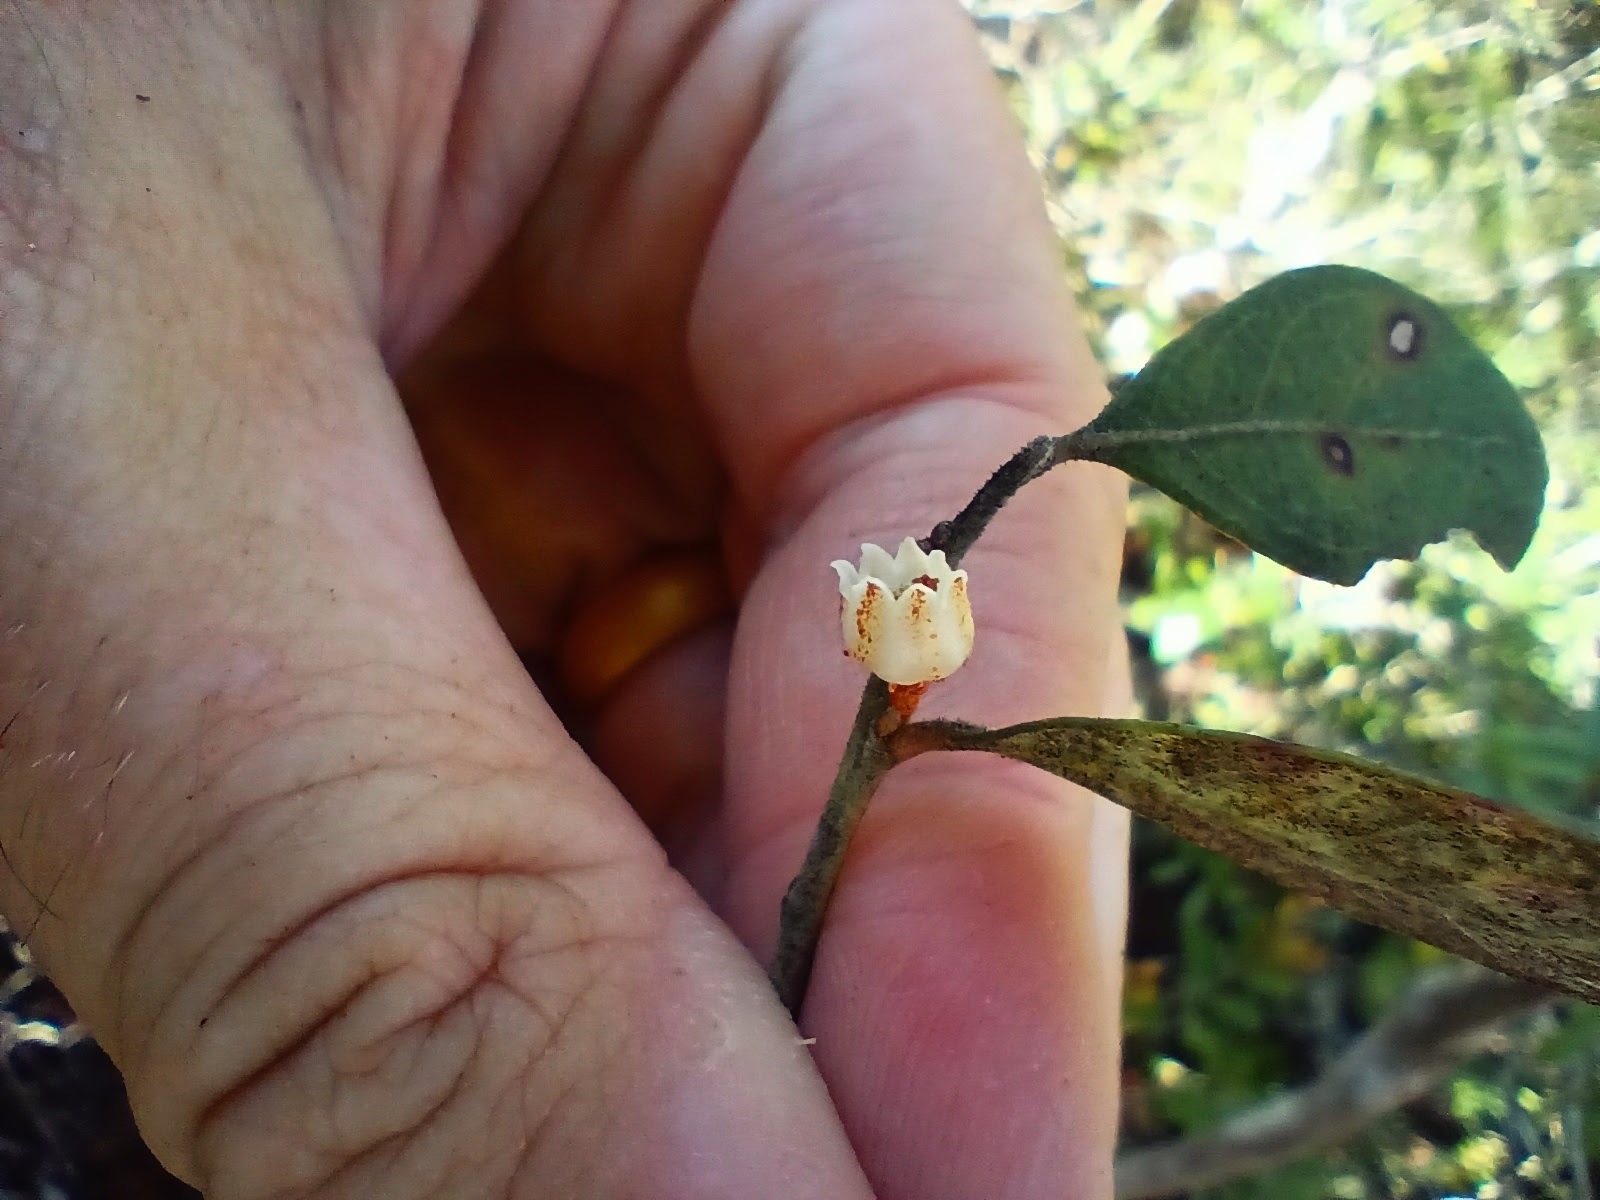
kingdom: Plantae
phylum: Tracheophyta
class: Magnoliopsida
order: Ericales
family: Ericaceae
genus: Lyonia
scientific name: Lyonia fruticosa
